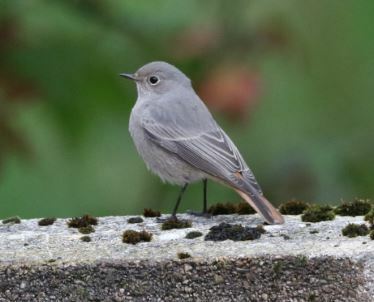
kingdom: Animalia
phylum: Chordata
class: Aves
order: Passeriformes
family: Muscicapidae
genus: Phoenicurus
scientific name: Phoenicurus ochruros
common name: Black redstart
